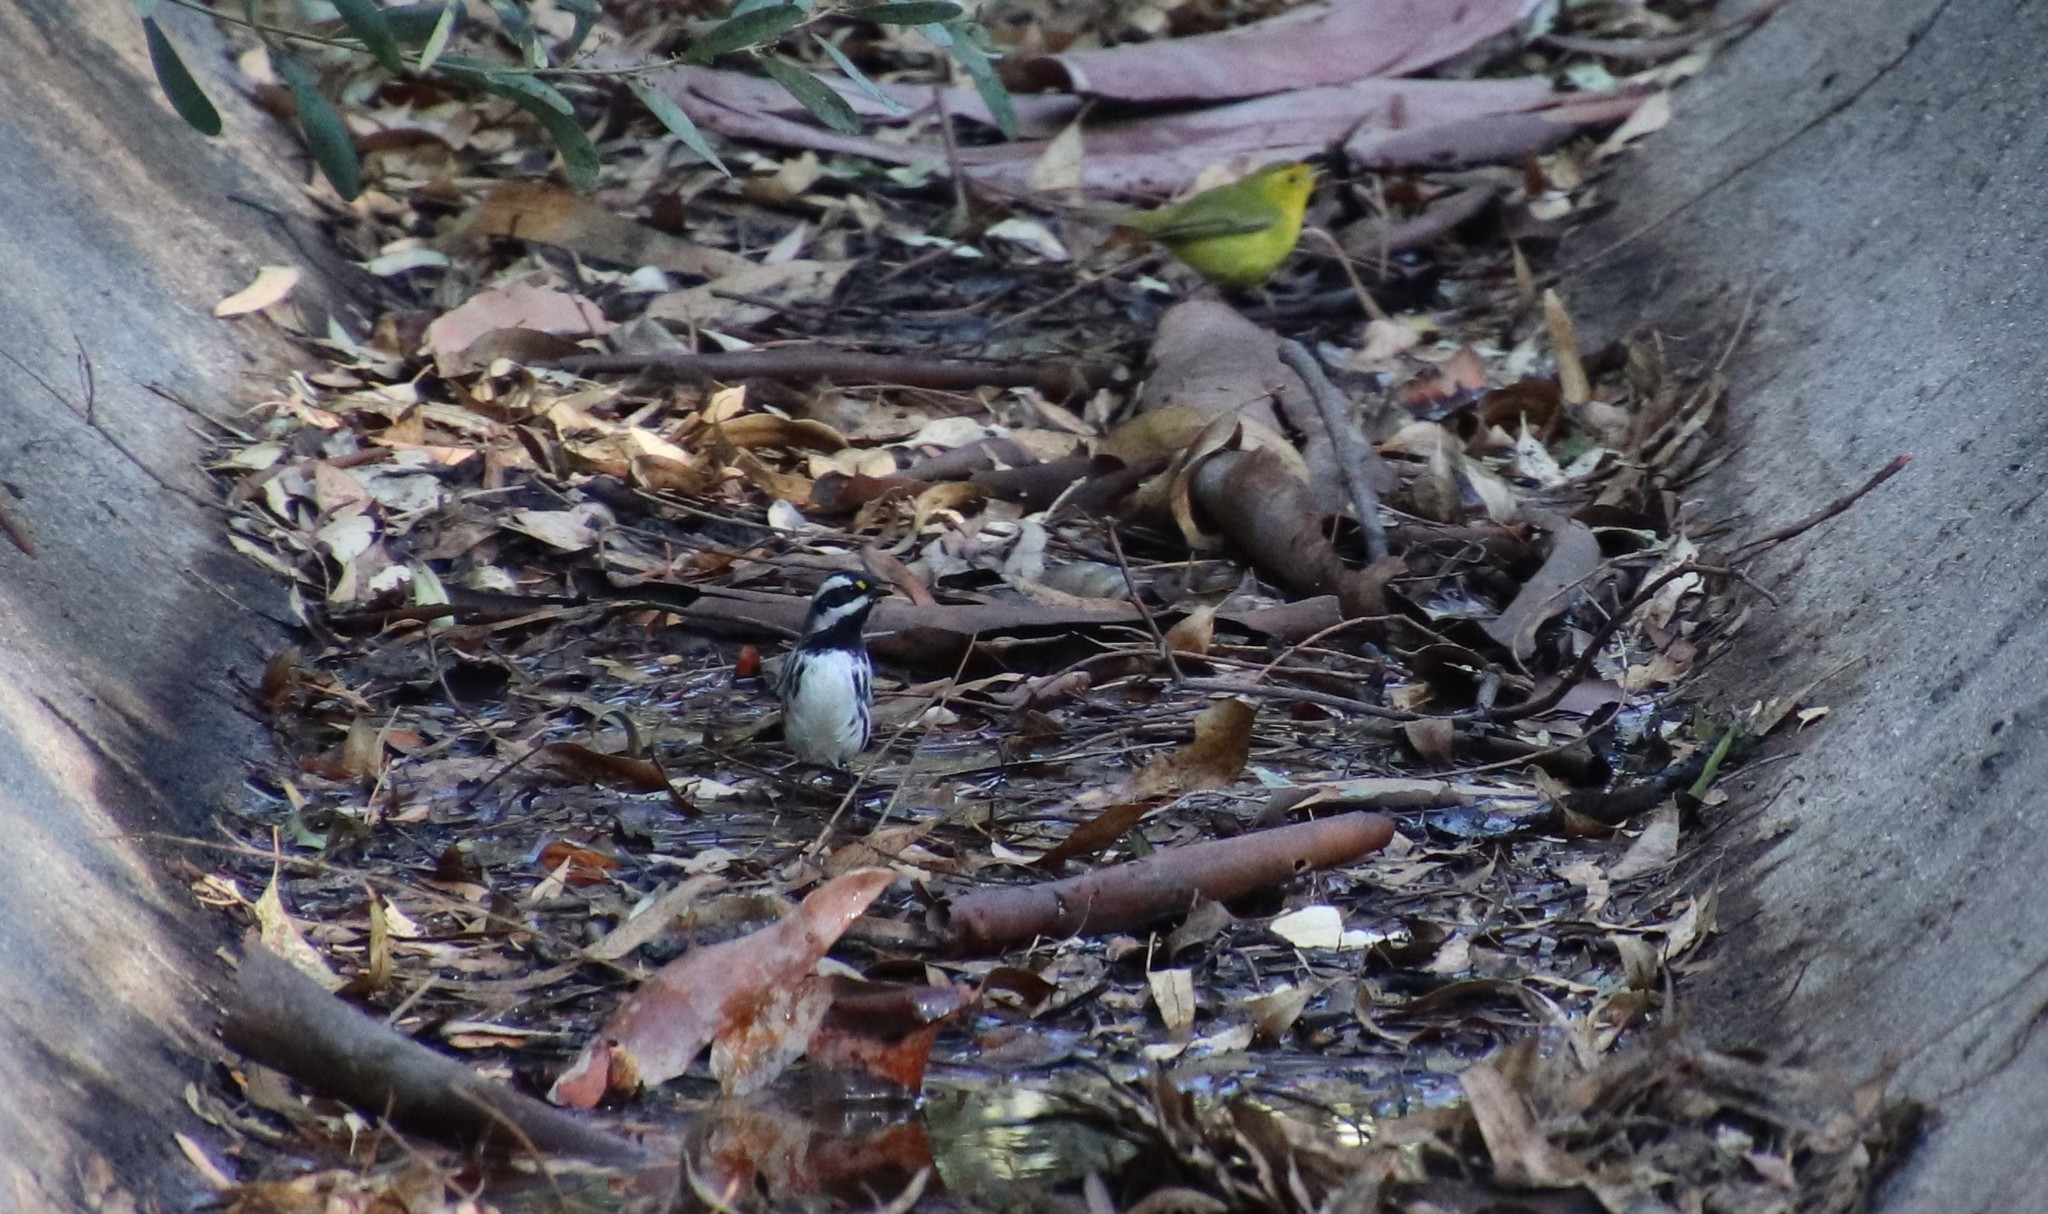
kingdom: Animalia
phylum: Chordata
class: Aves
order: Passeriformes
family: Parulidae
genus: Setophaga
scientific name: Setophaga nigrescens
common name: Black-throated gray warbler
